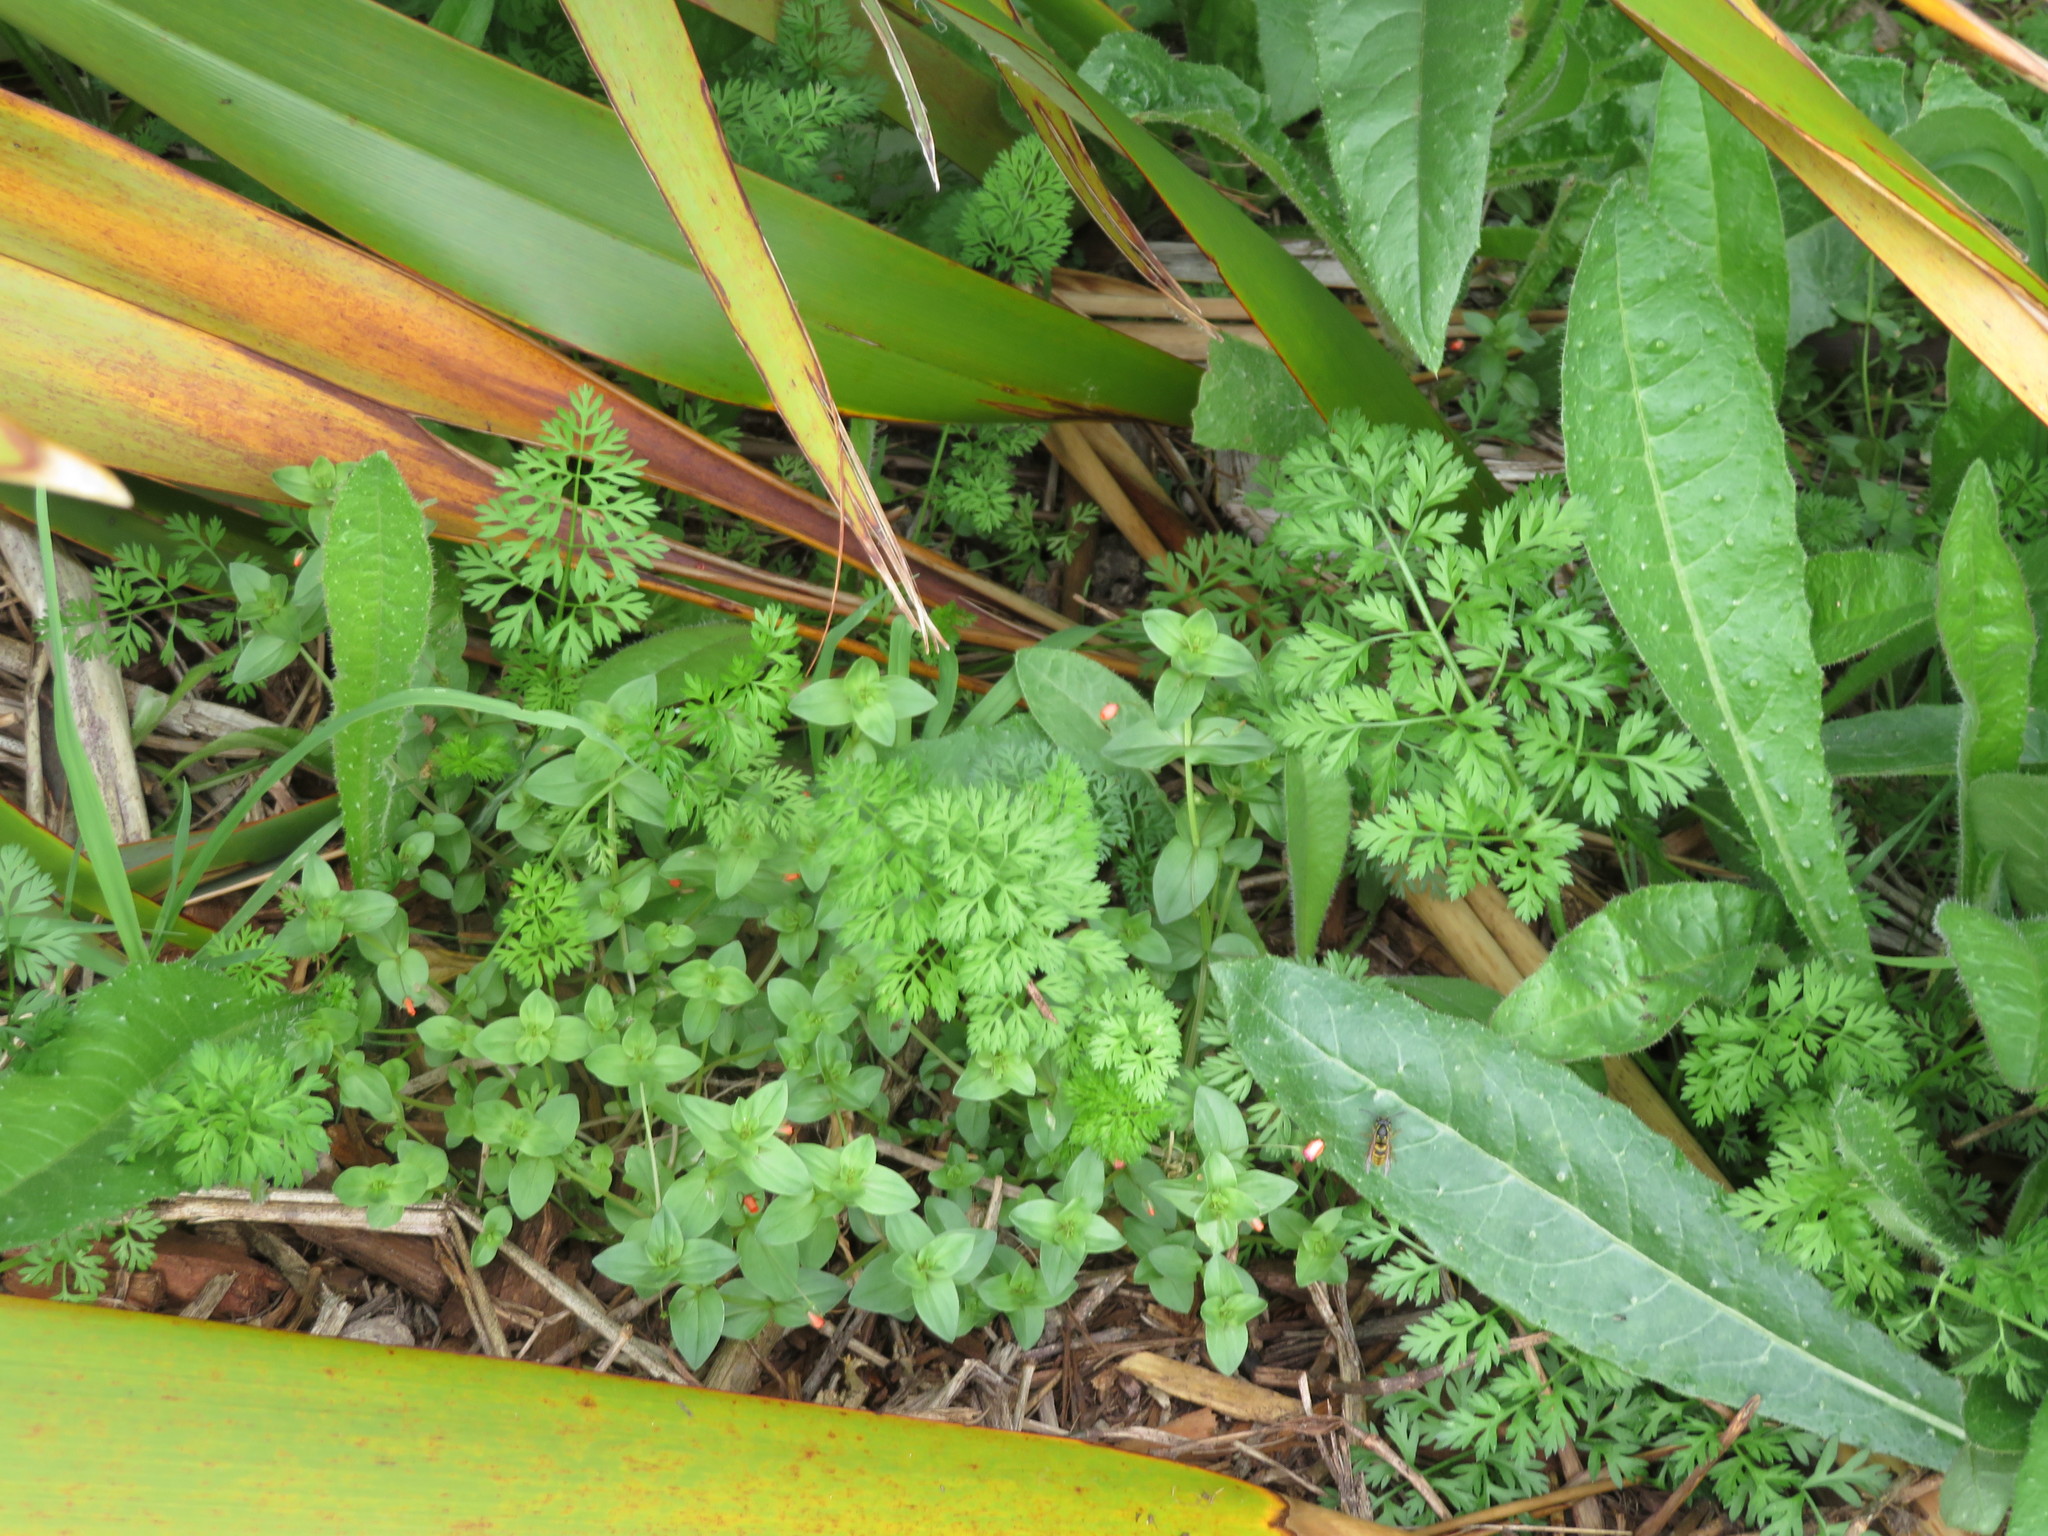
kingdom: Plantae
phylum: Tracheophyta
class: Magnoliopsida
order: Ericales
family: Primulaceae
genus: Lysimachia
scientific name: Lysimachia arvensis
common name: Scarlet pimpernel
